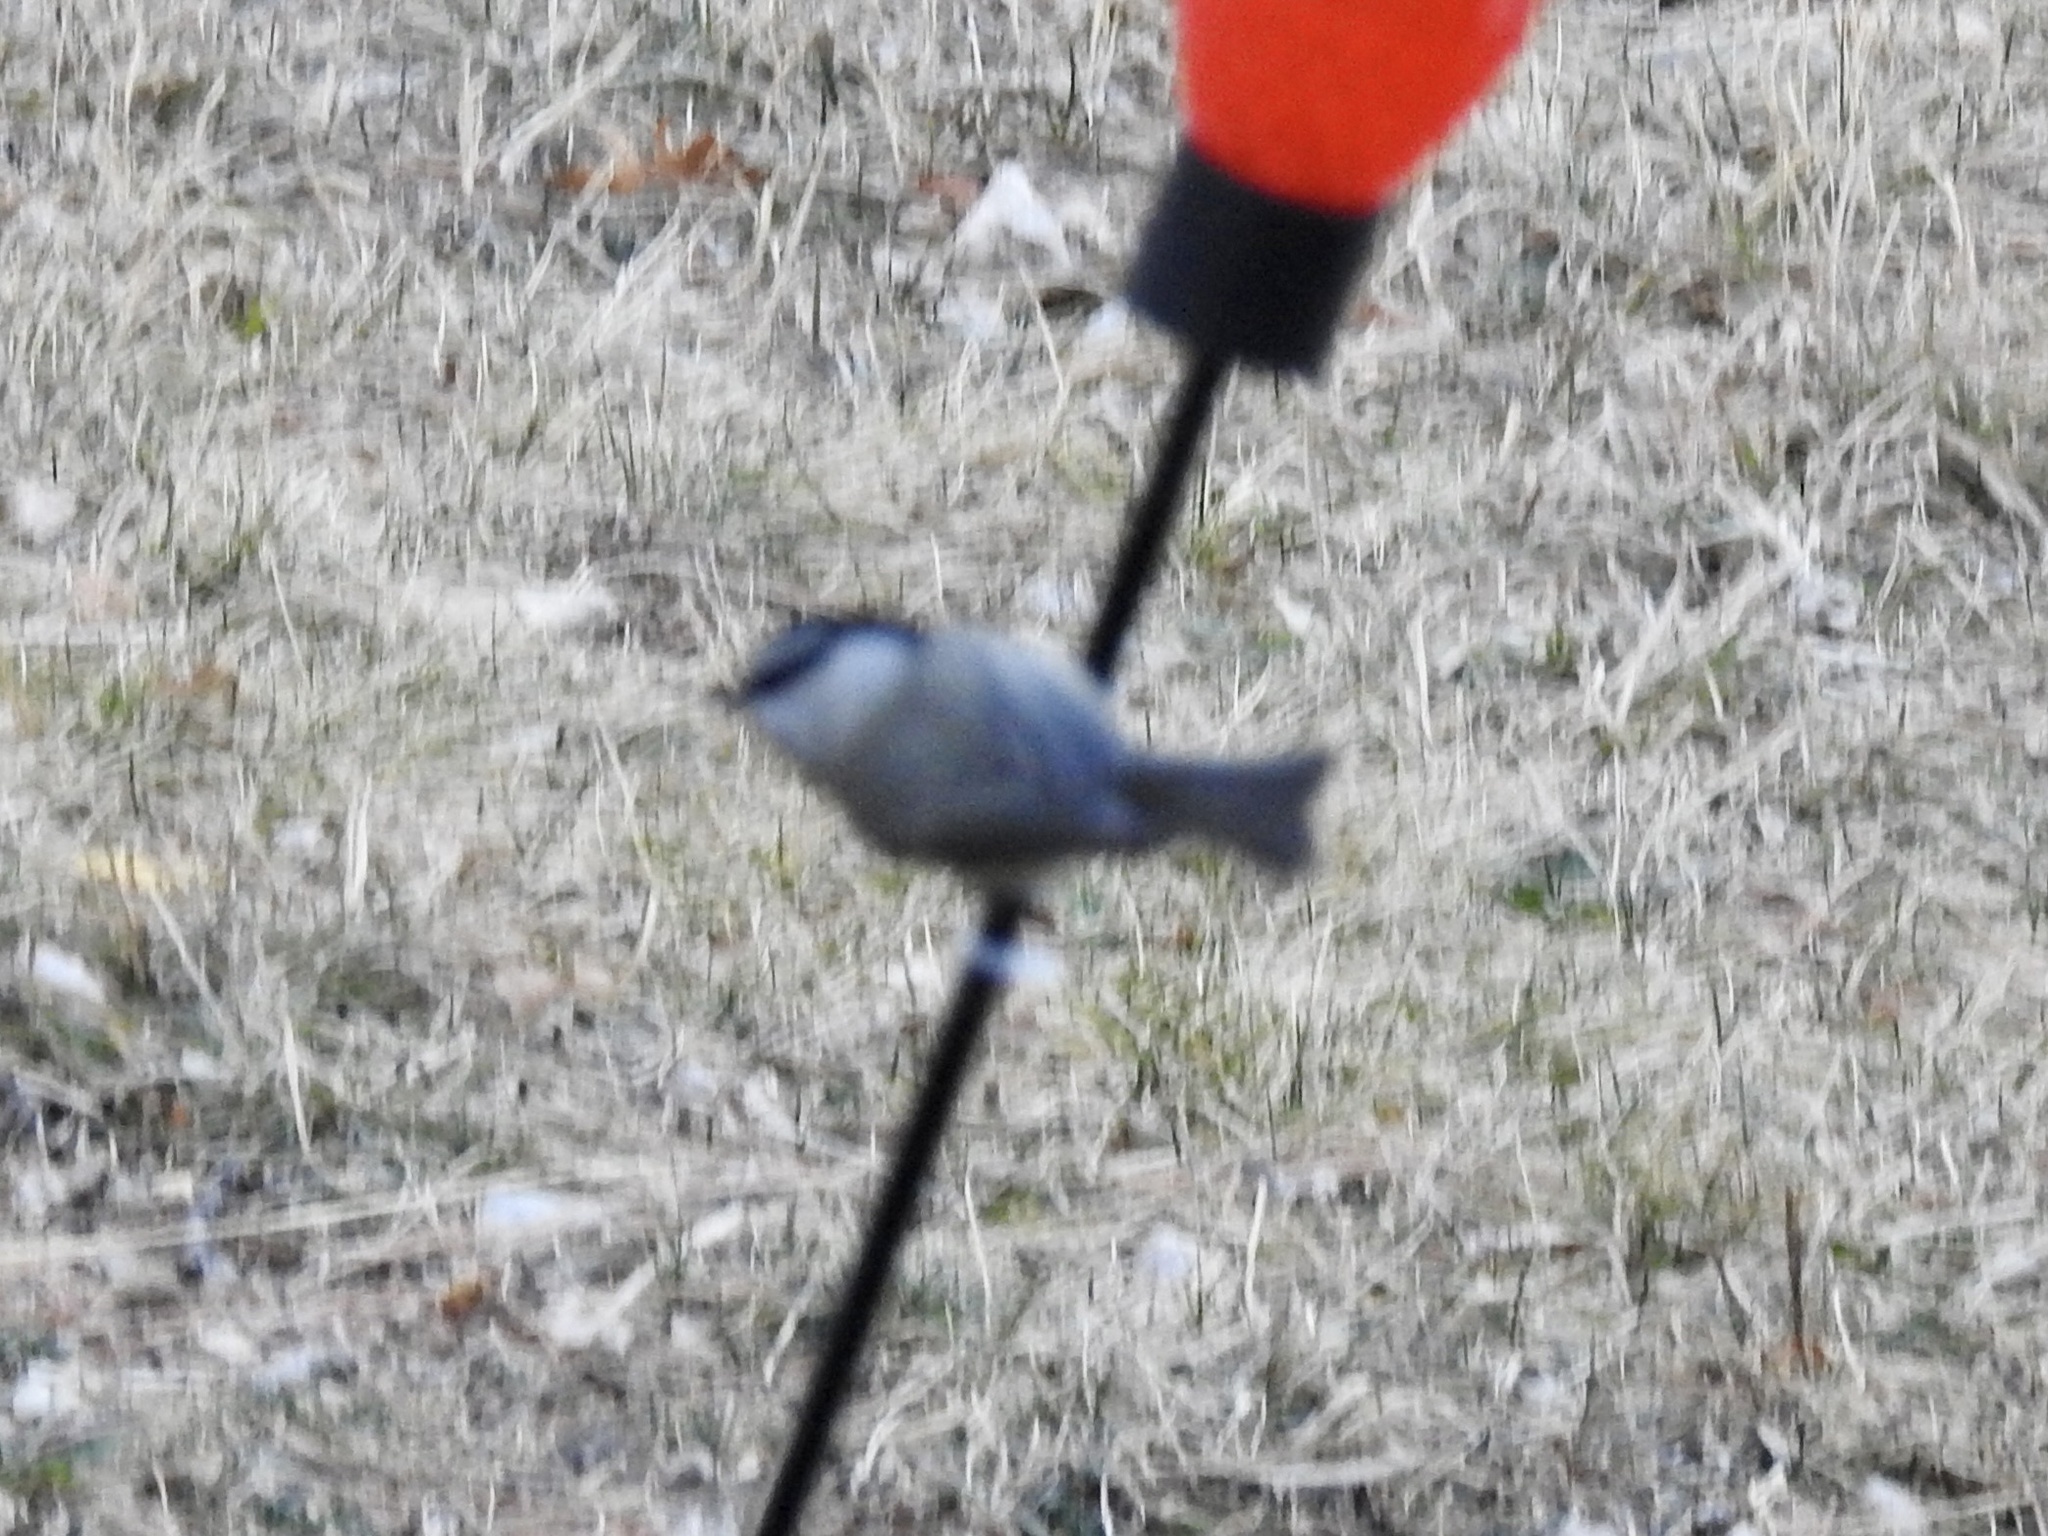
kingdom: Animalia
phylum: Chordata
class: Aves
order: Passeriformes
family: Paridae
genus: Poecile
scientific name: Poecile gambeli
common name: Mountain chickadee
